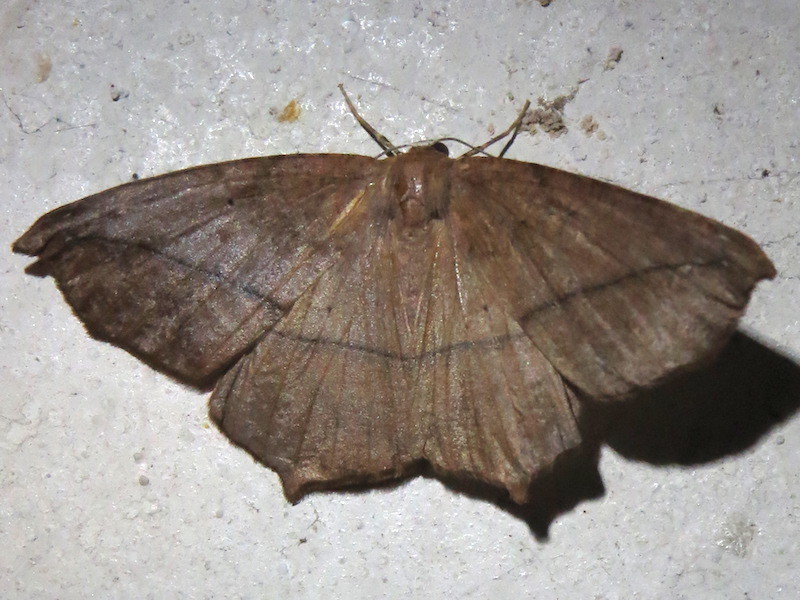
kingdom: Animalia
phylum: Arthropoda
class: Insecta
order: Lepidoptera
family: Geometridae
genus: Prochoerodes
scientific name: Prochoerodes lineola
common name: Large maple spanworm
